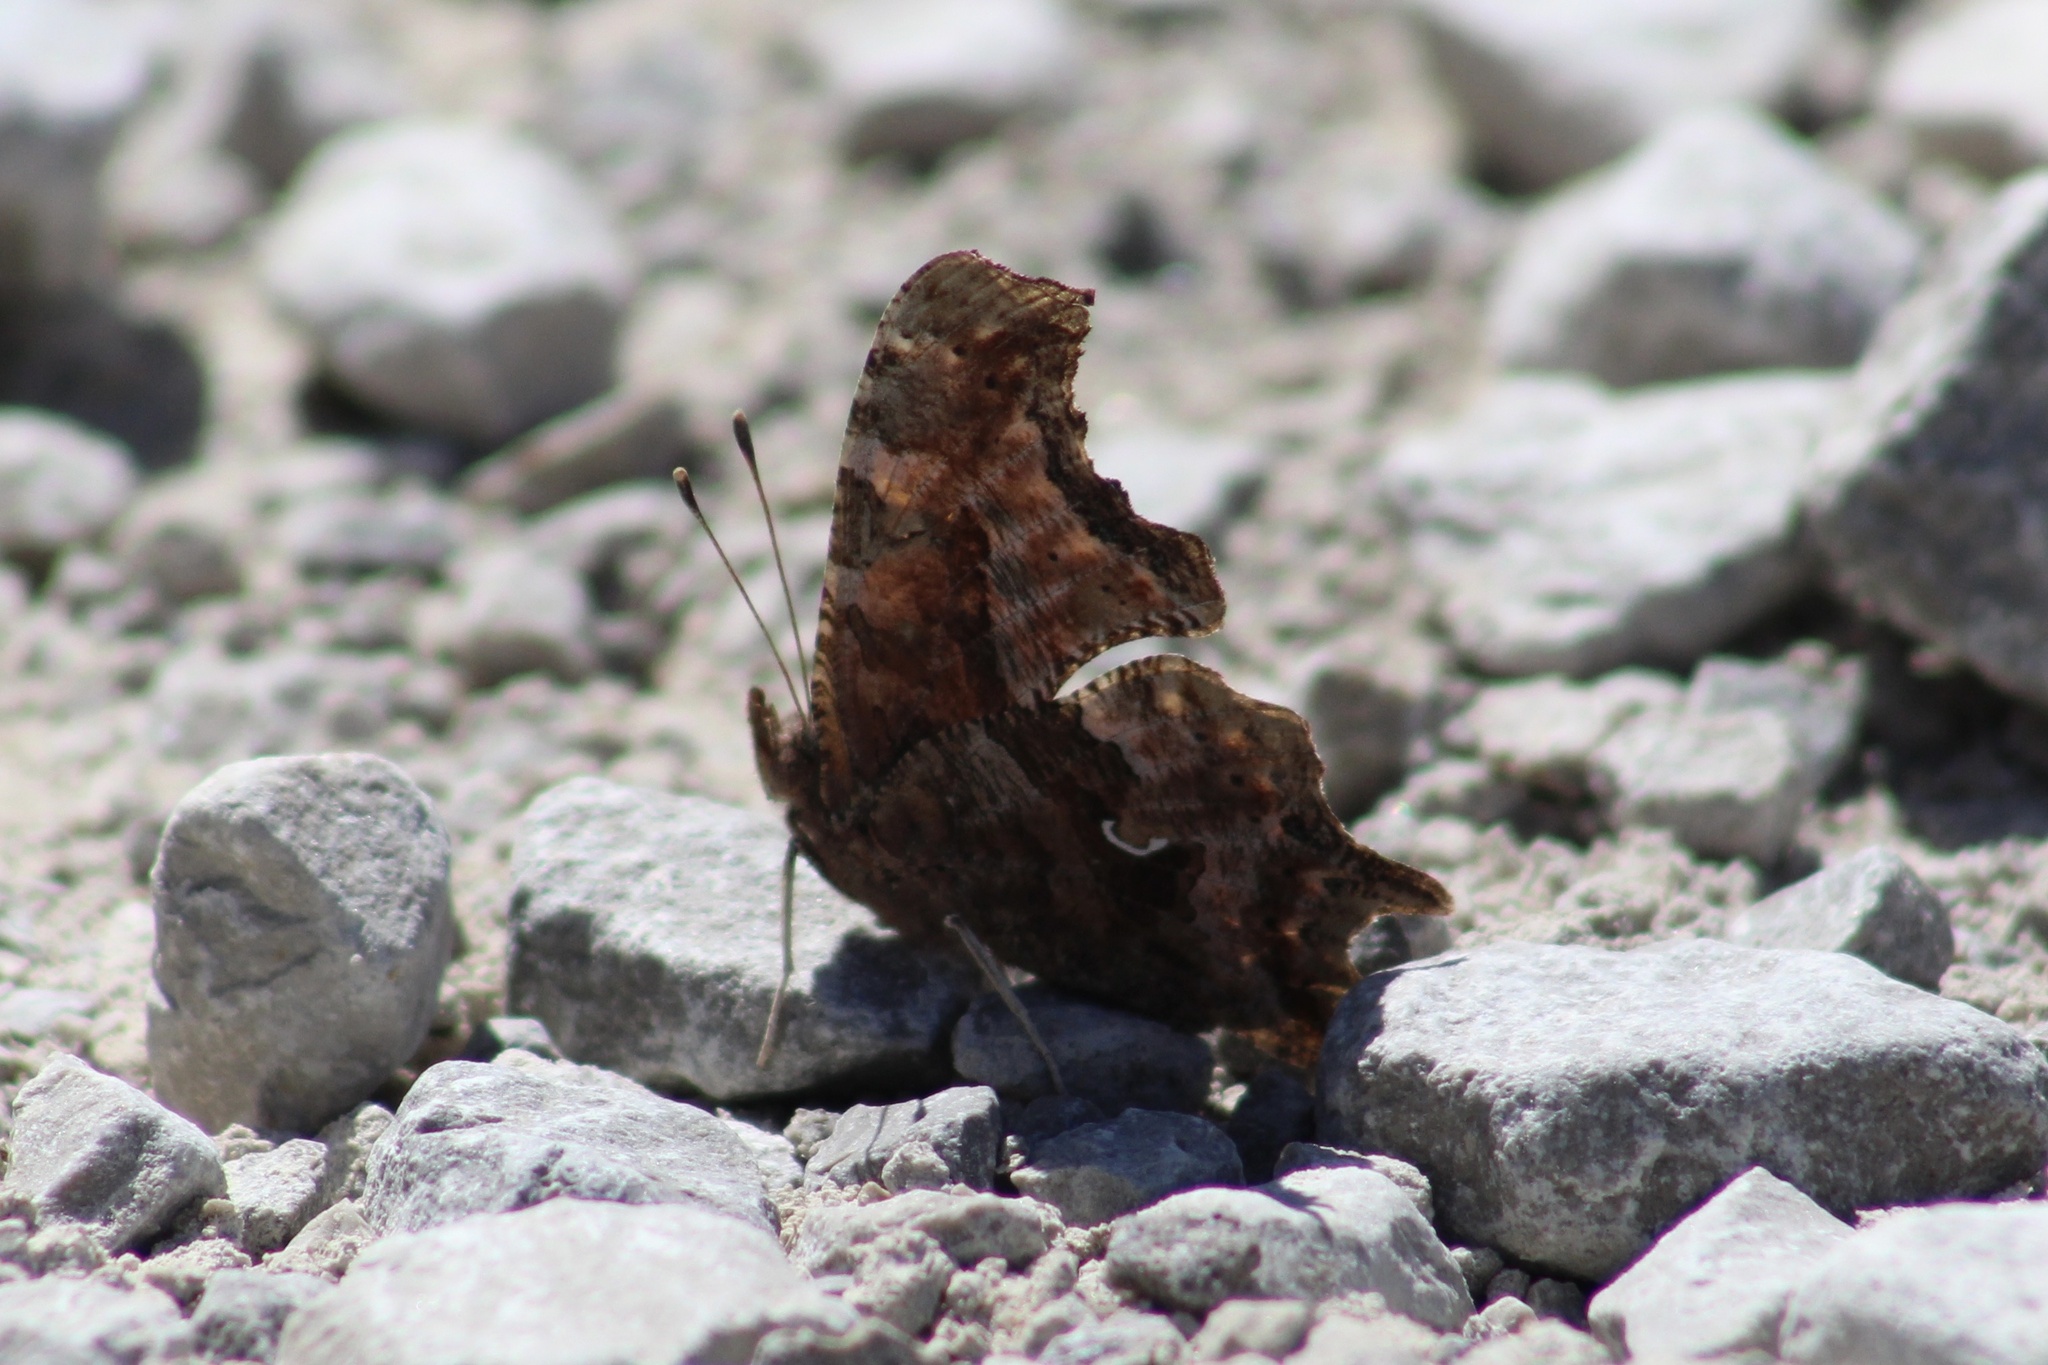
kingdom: Animalia
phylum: Arthropoda
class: Insecta
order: Lepidoptera
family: Nymphalidae
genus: Polygonia
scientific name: Polygonia comma
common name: Eastern comma
